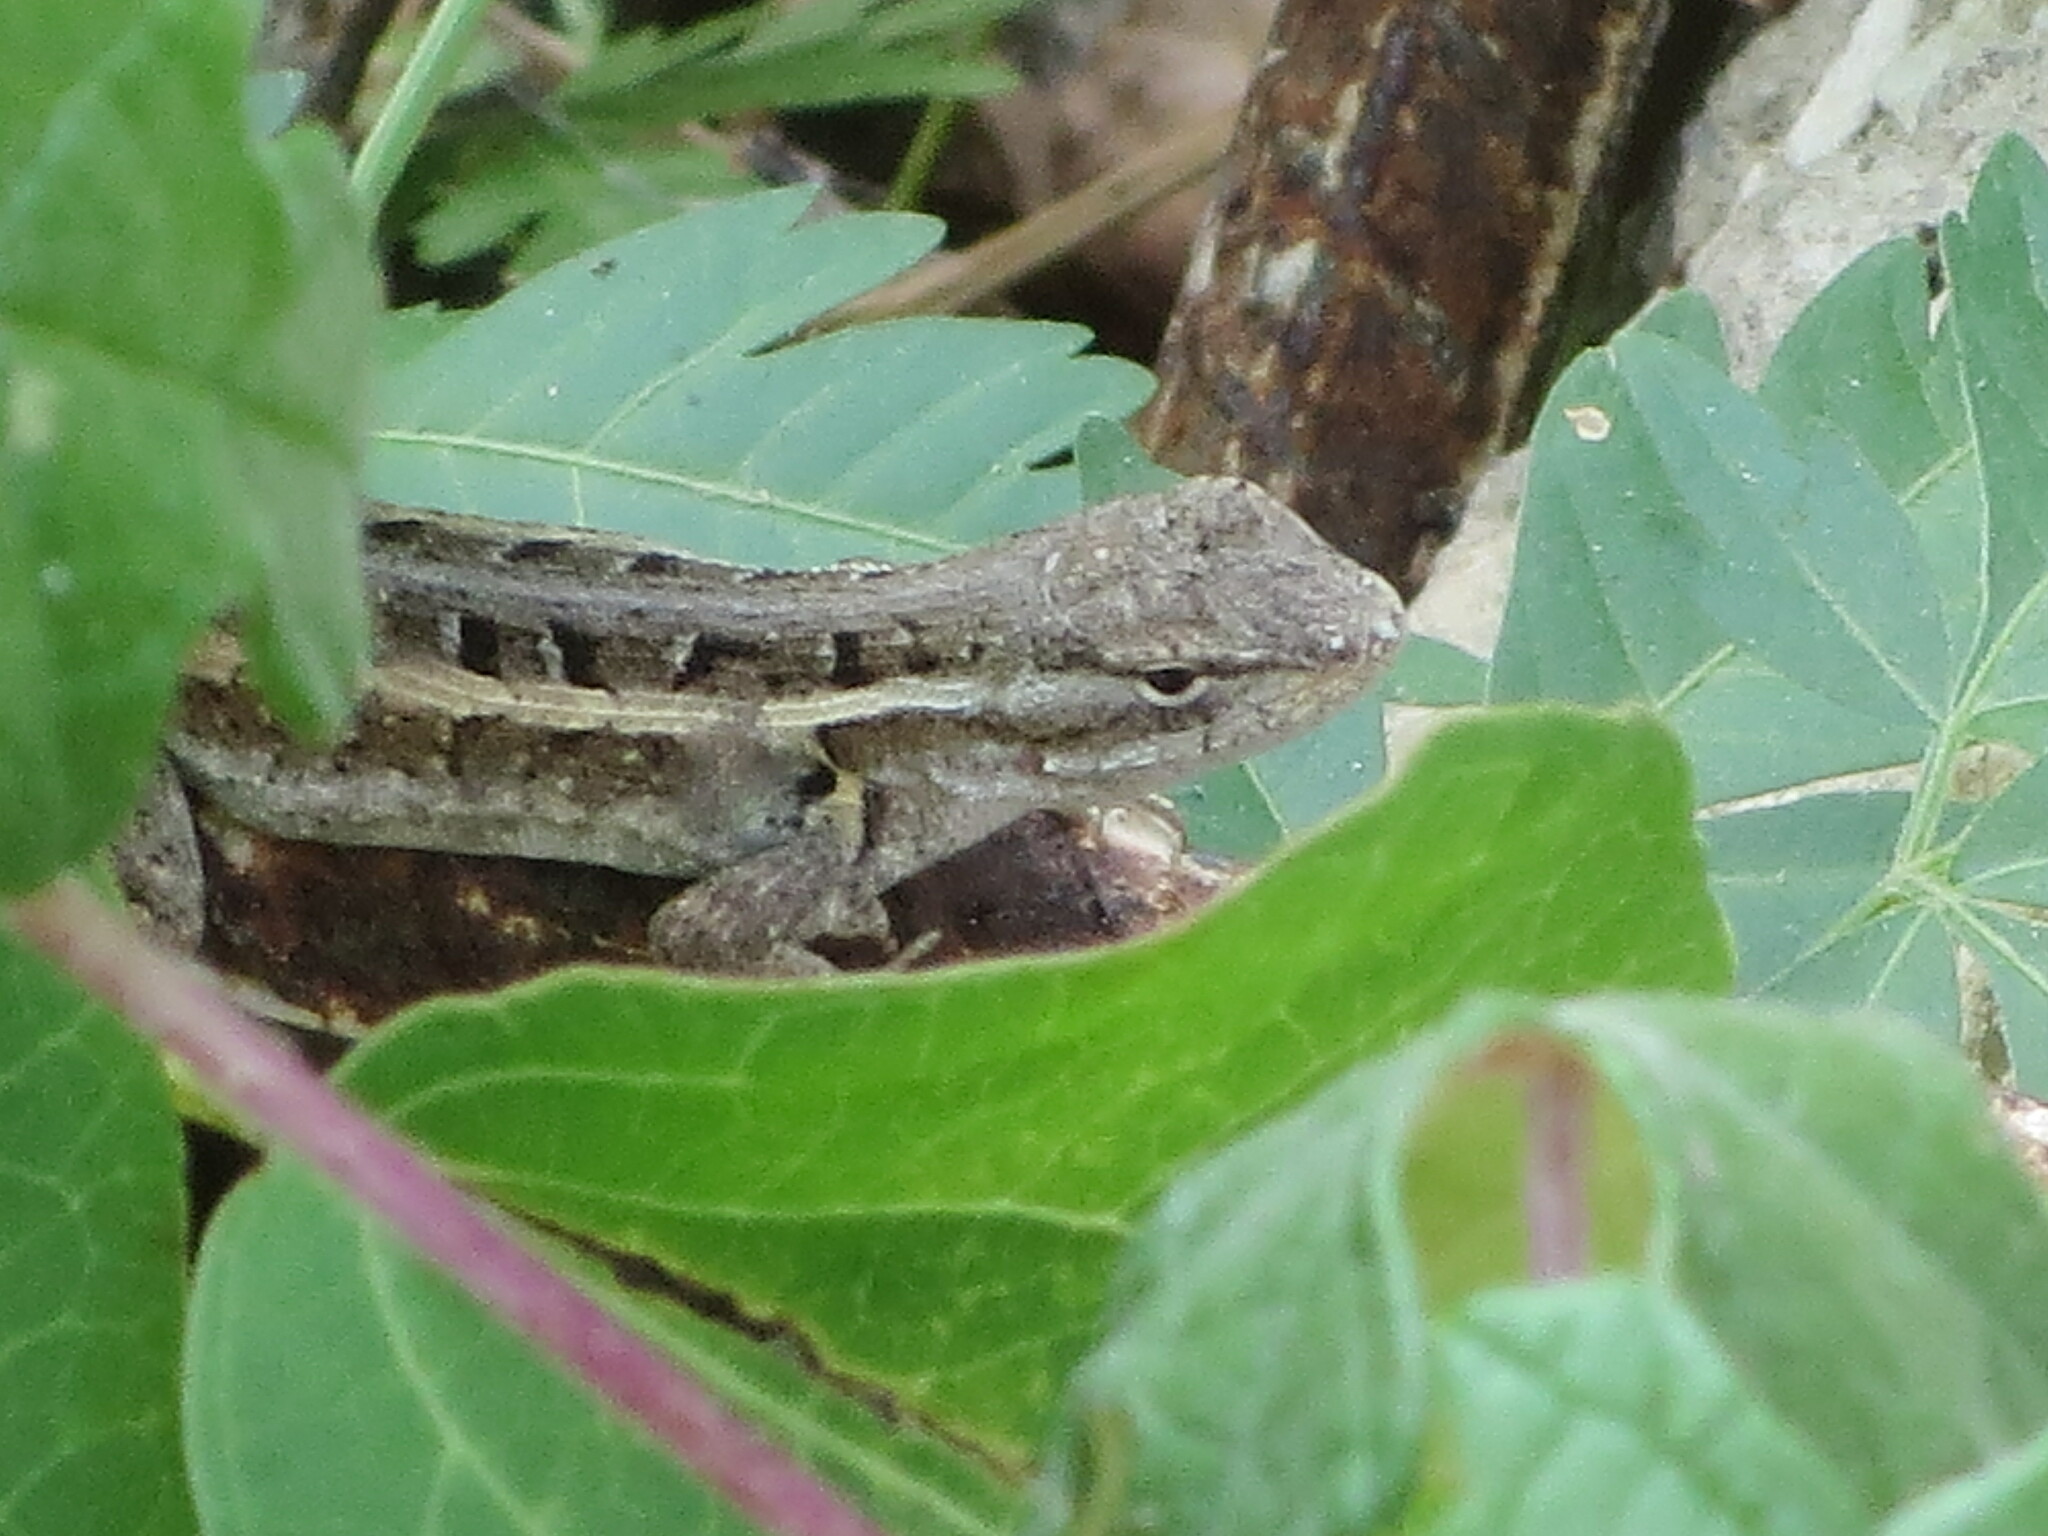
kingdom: Animalia
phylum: Chordata
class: Squamata
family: Phrynosomatidae
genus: Sceloporus
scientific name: Sceloporus variabilis
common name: Rosebelly lizard
